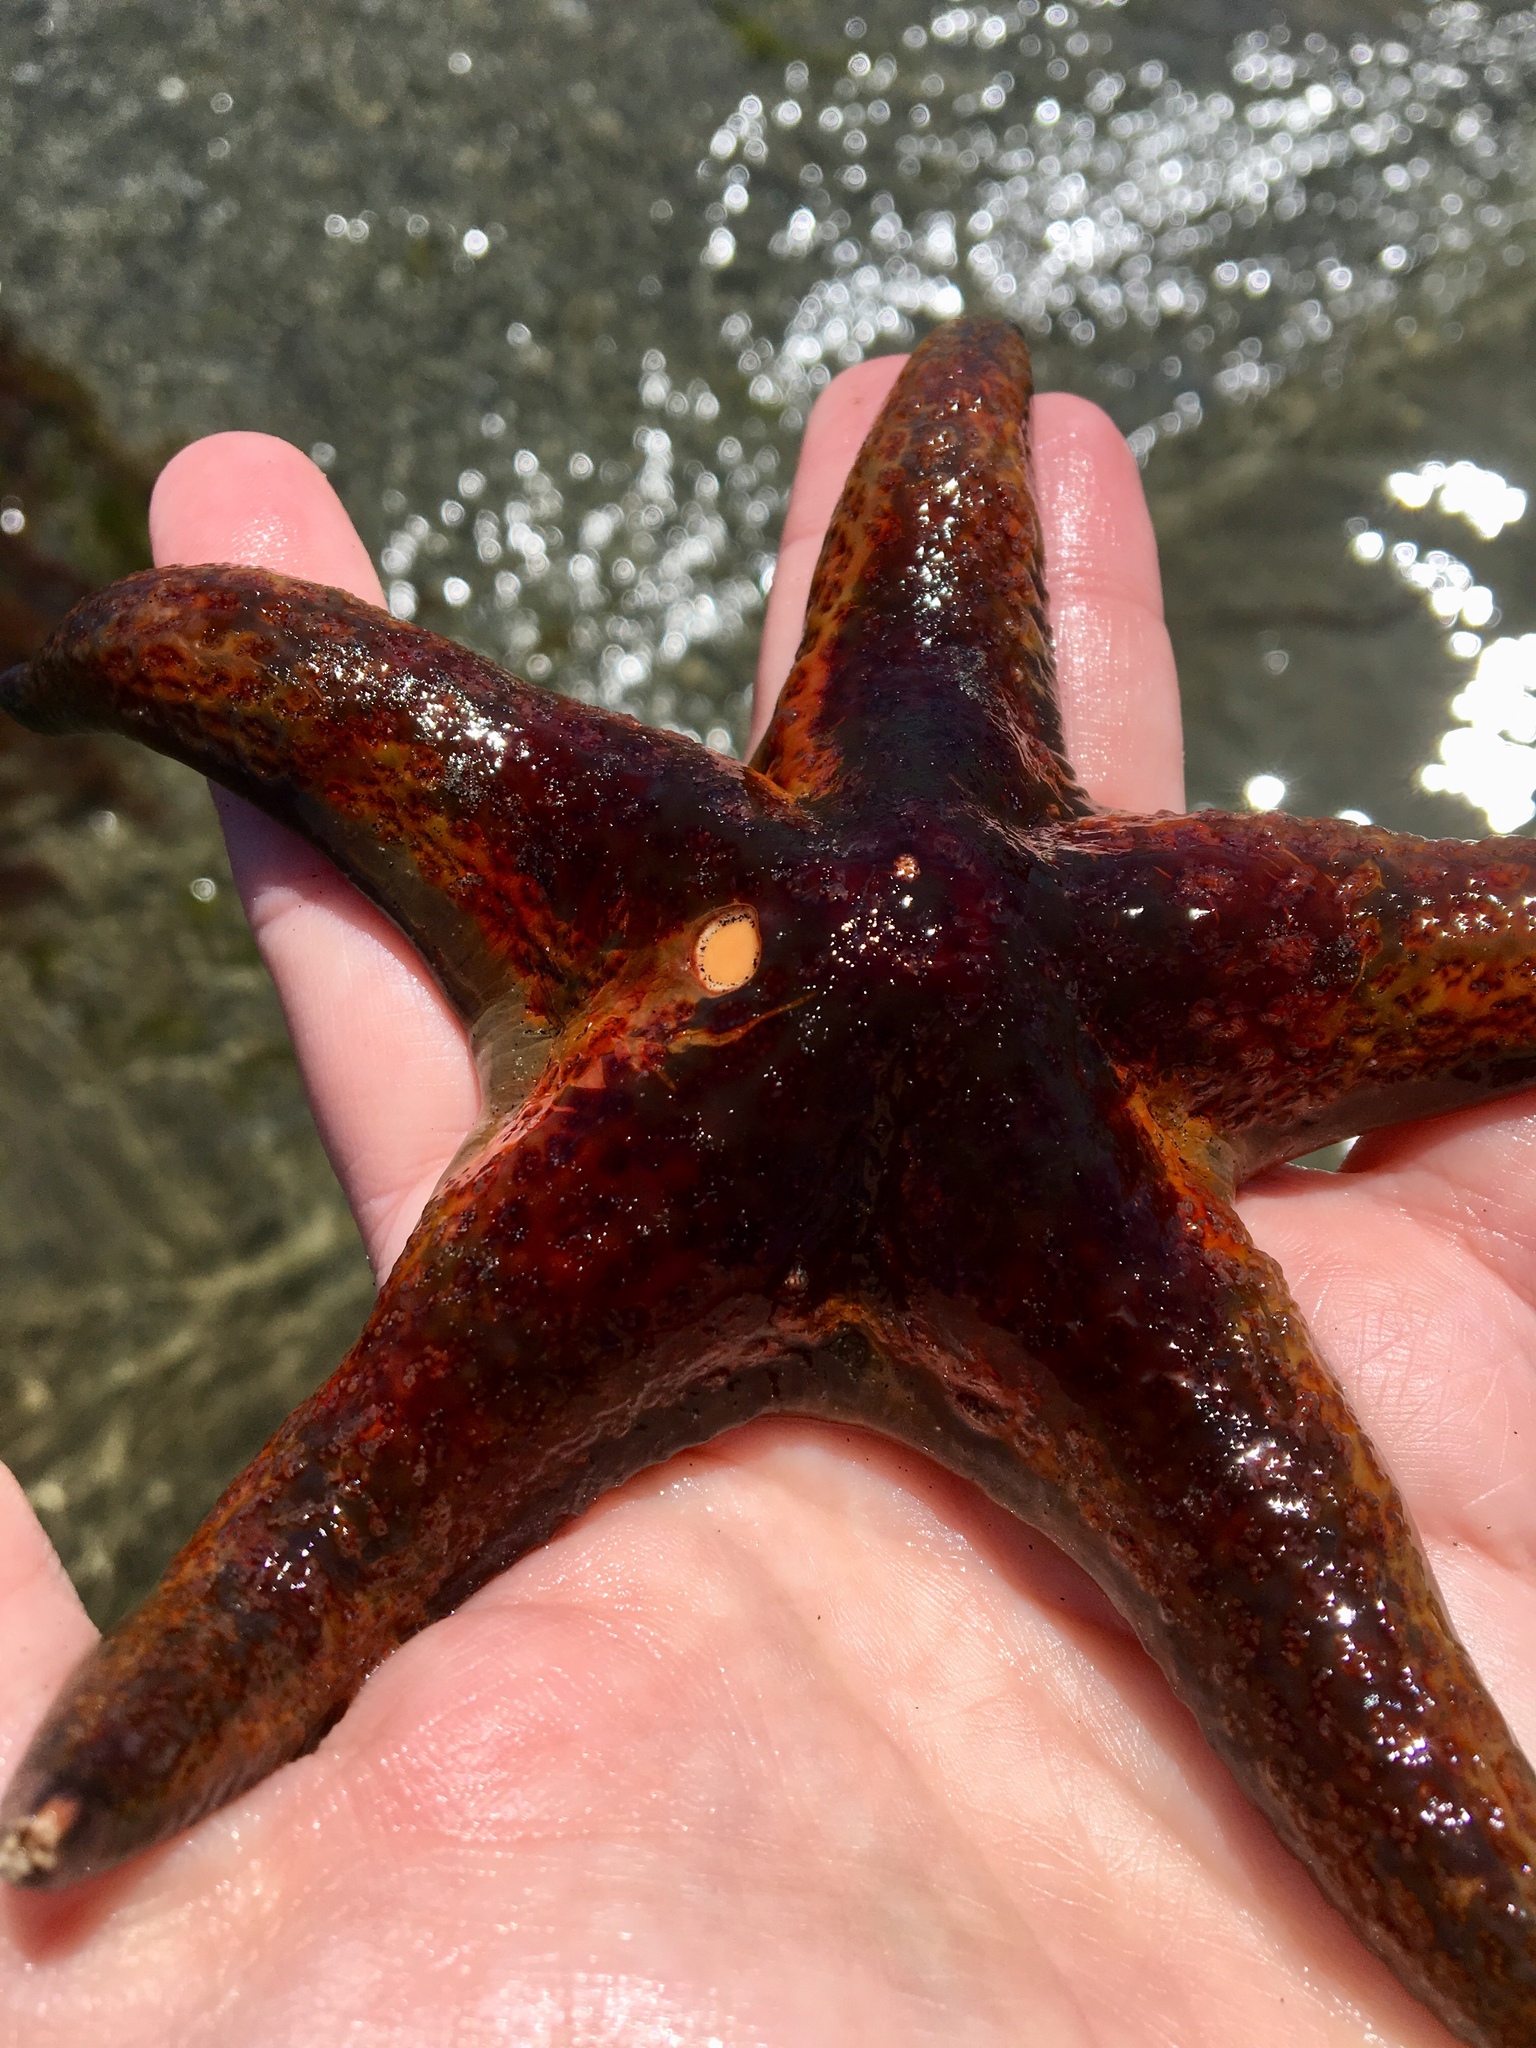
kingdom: Animalia
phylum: Echinodermata
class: Asteroidea
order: Valvatida
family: Asteropseidae
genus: Dermasterias
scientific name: Dermasterias imbricata
